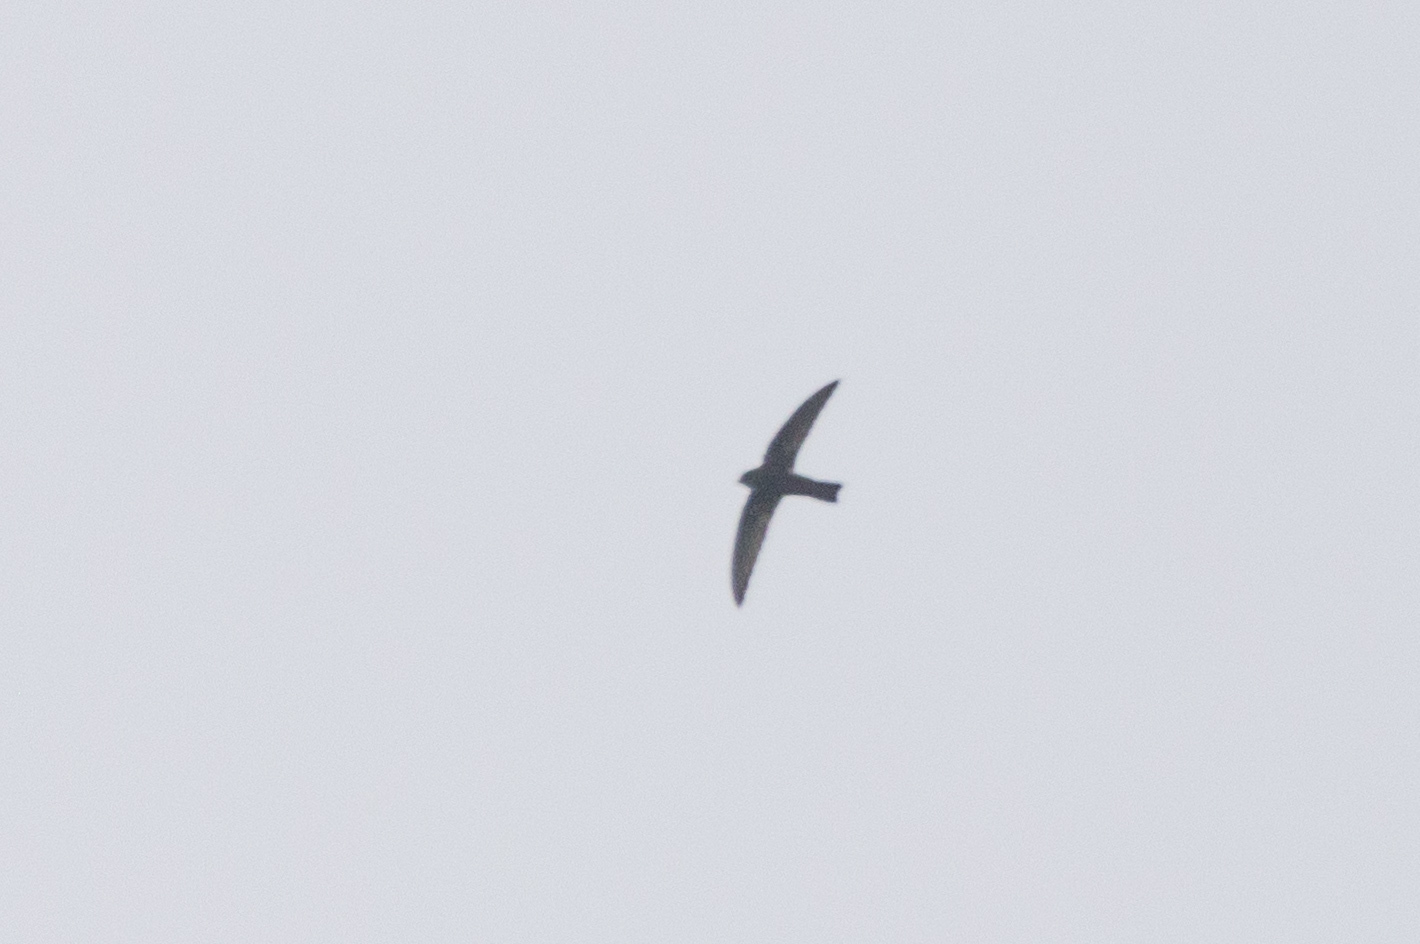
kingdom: Animalia
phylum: Chordata
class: Aves
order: Apodiformes
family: Apodidae
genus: Apus
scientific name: Apus nipalensis
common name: House swift
